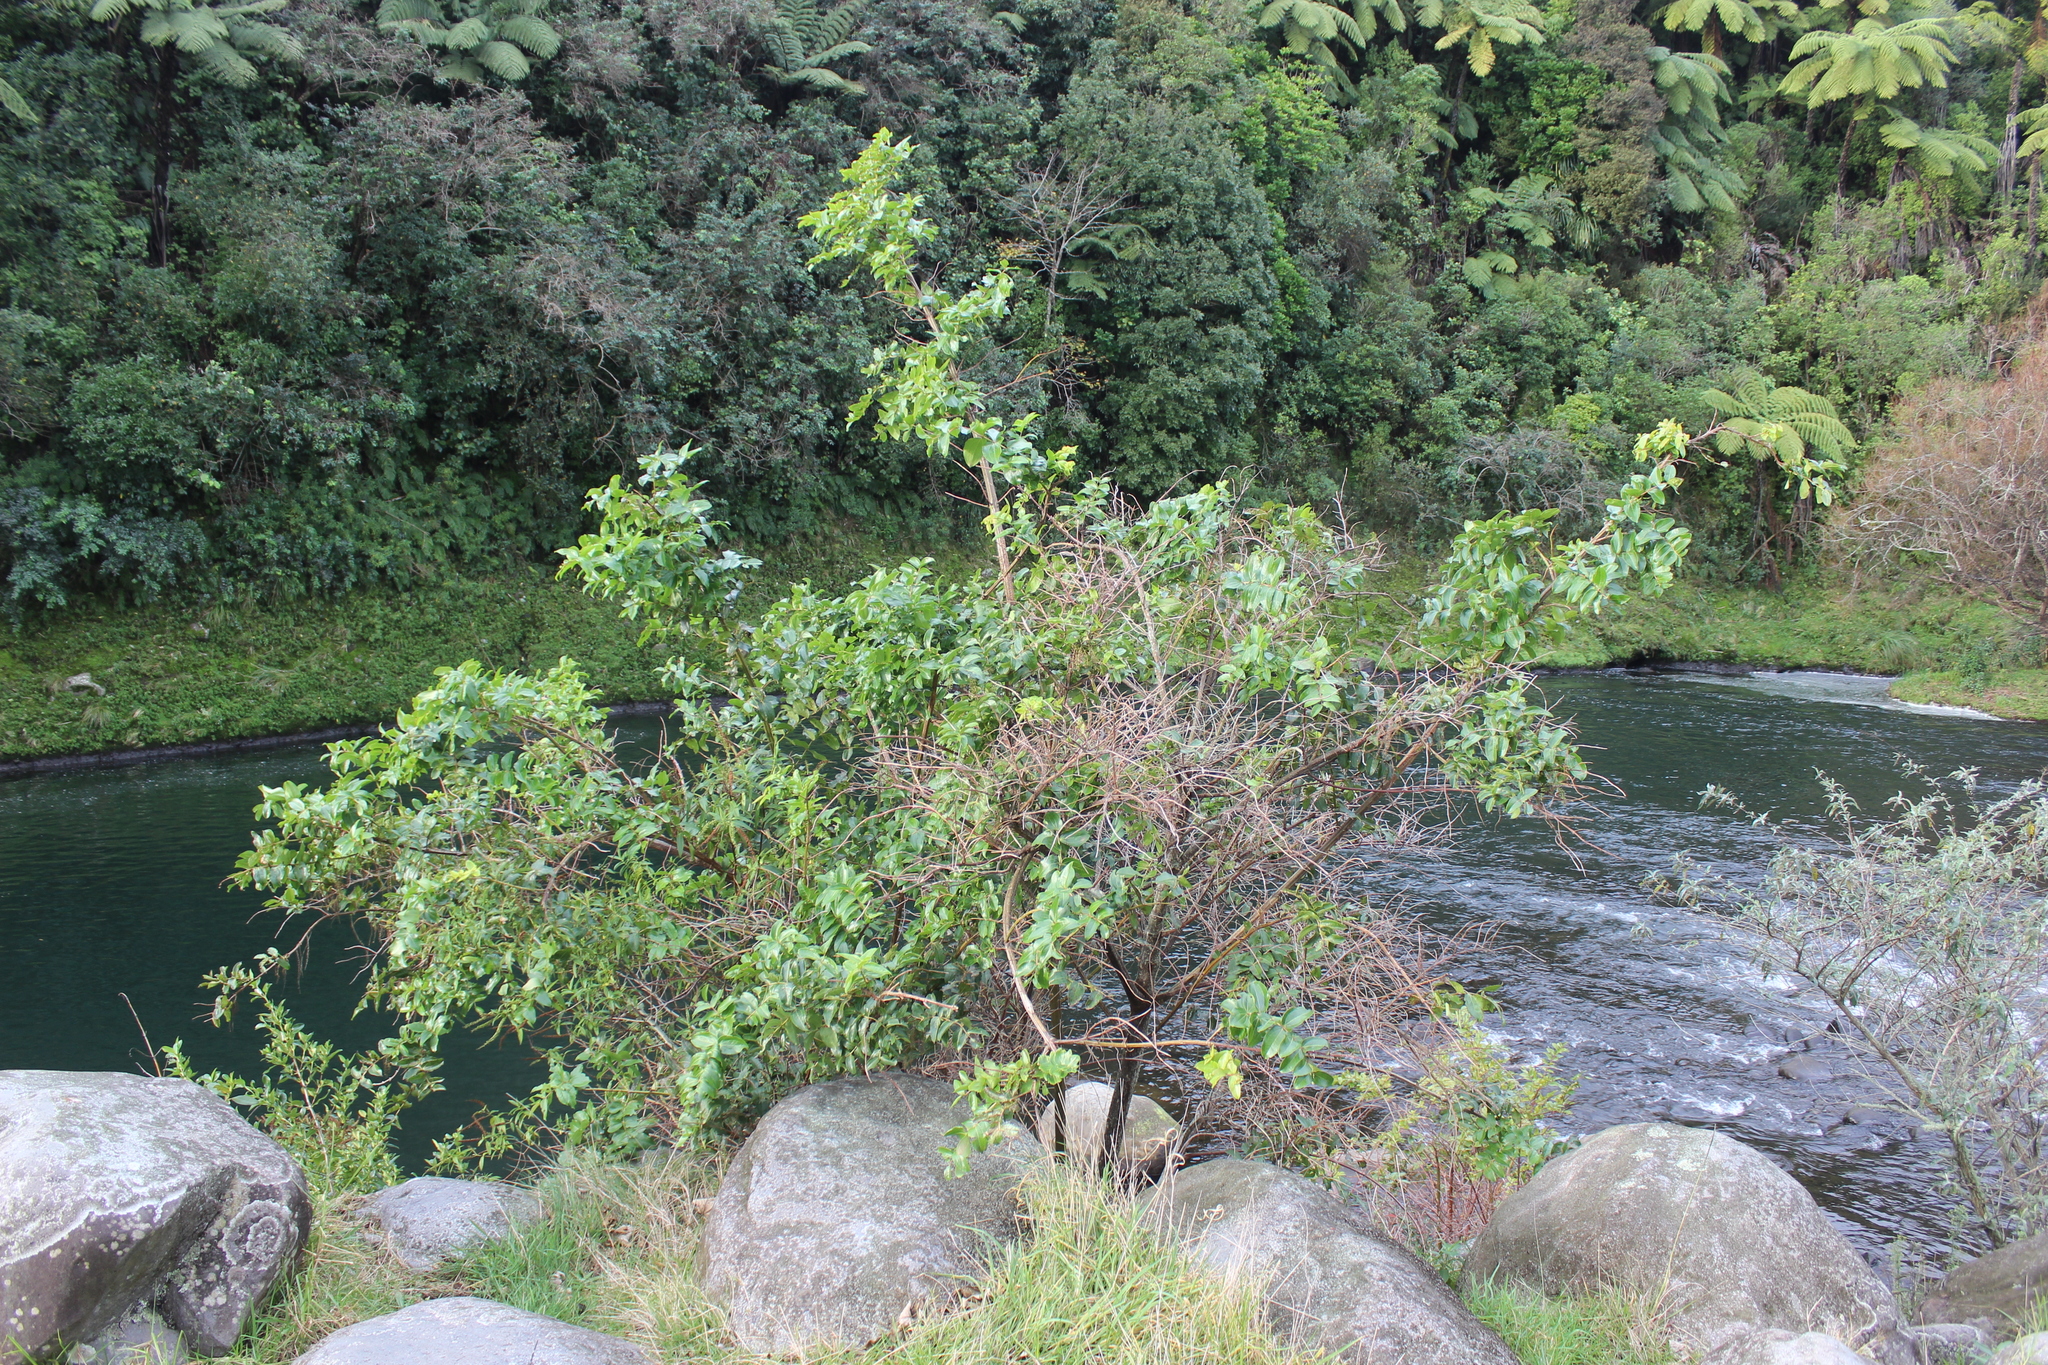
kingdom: Plantae
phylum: Tracheophyta
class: Magnoliopsida
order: Cucurbitales
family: Coriariaceae
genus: Coriaria
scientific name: Coriaria arborea
